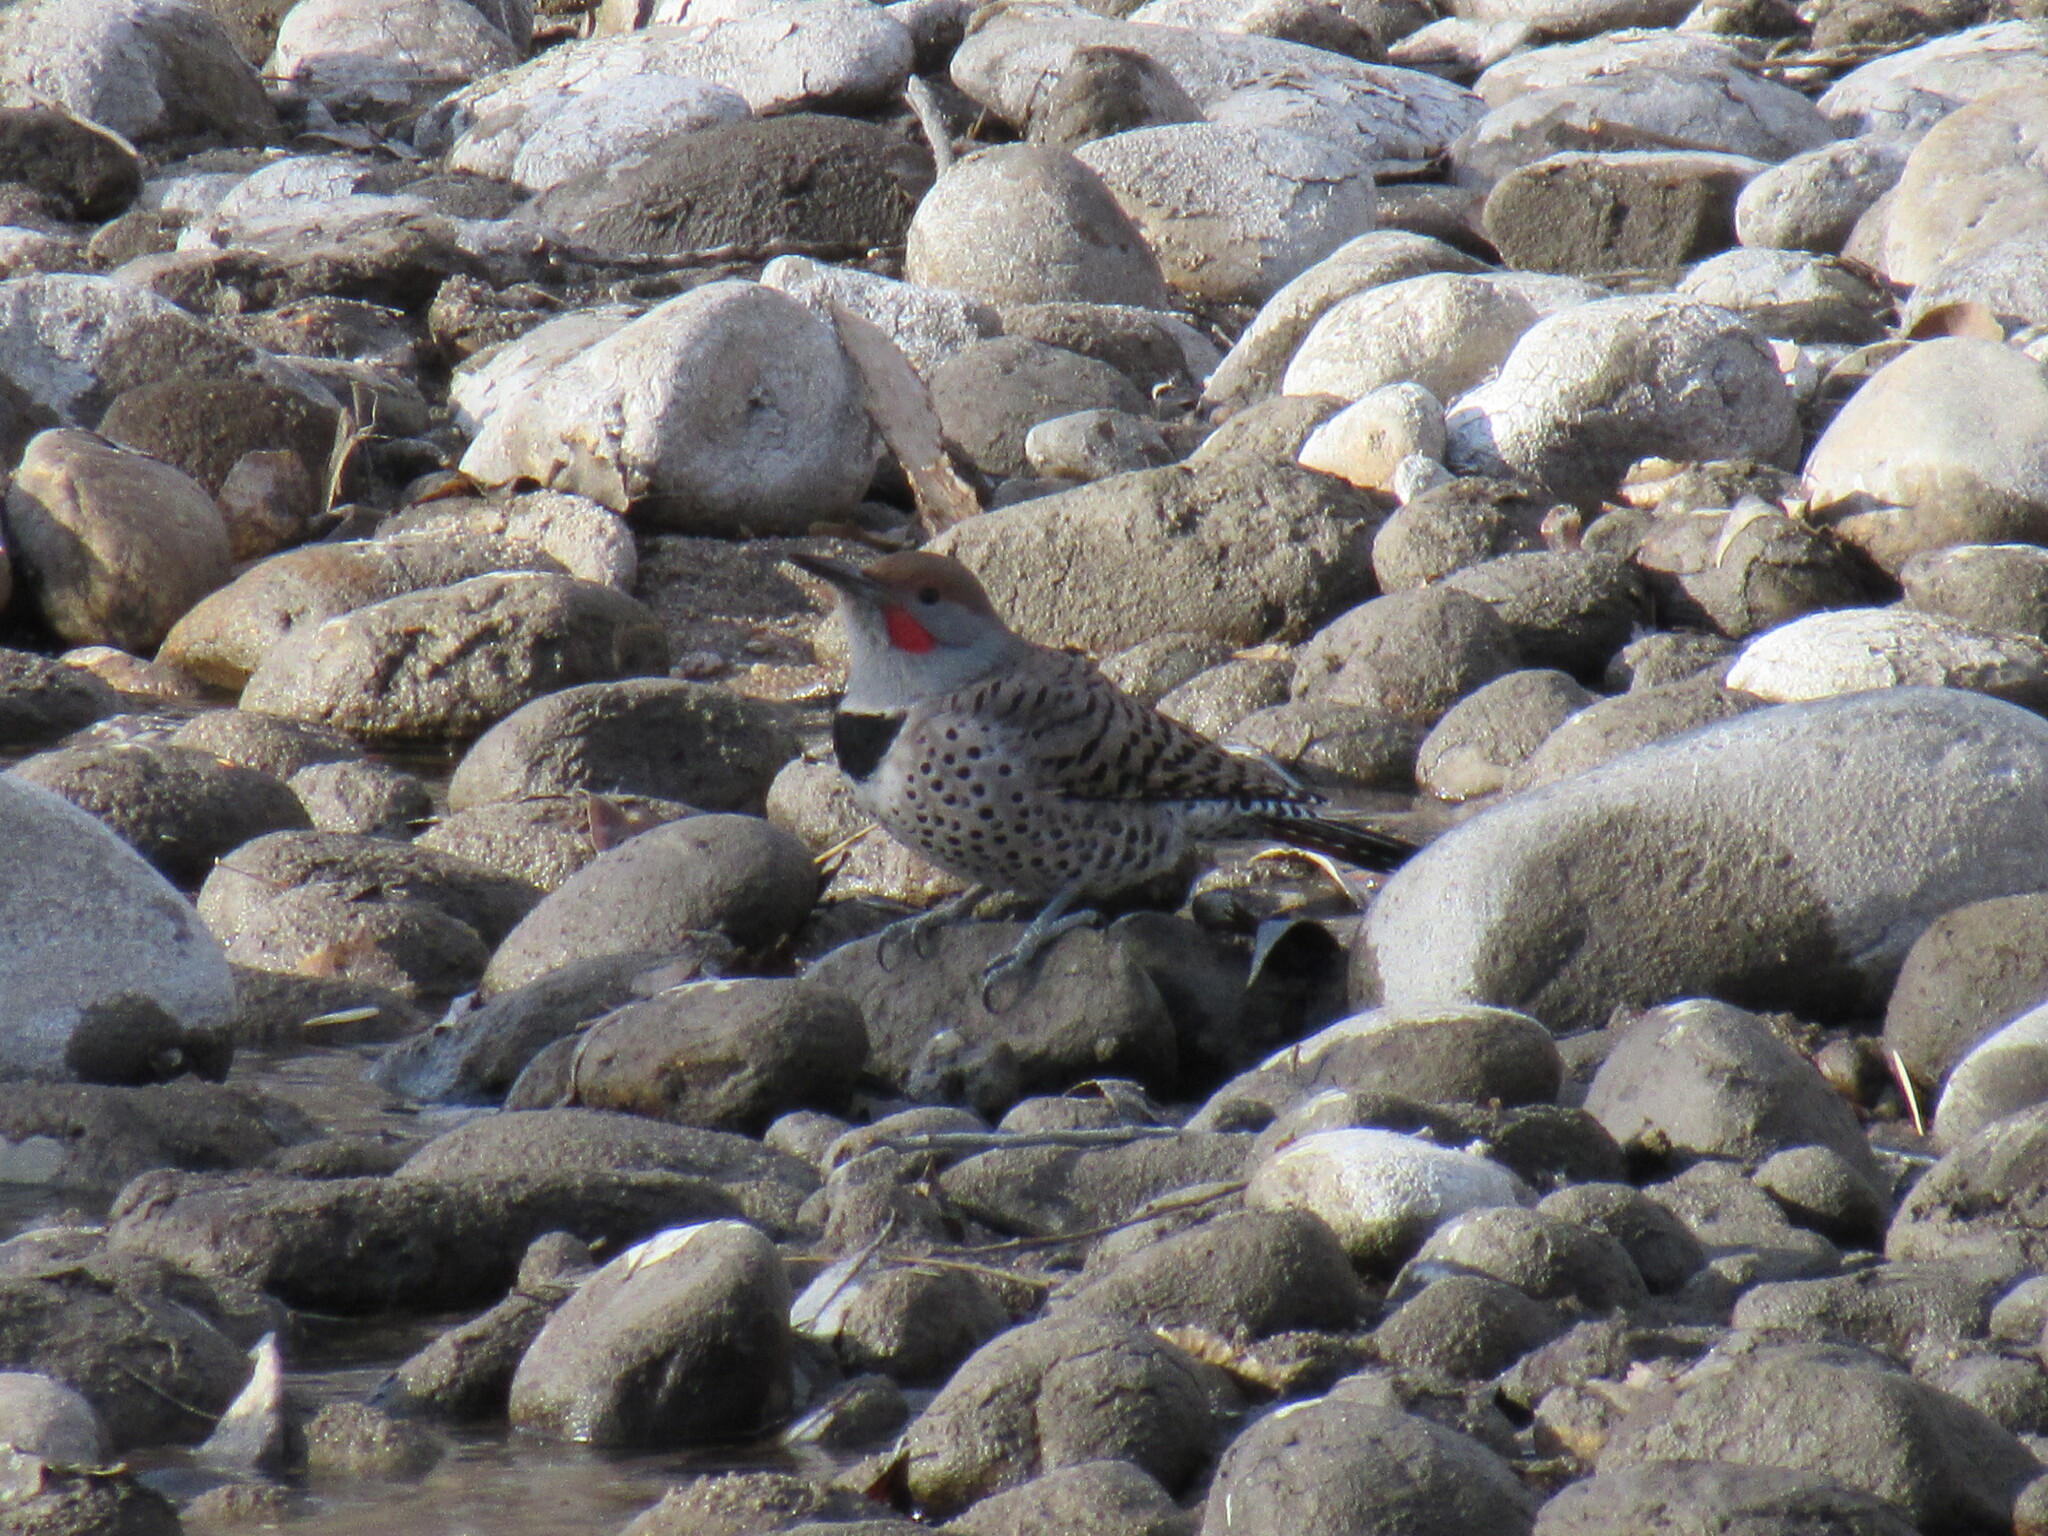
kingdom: Animalia
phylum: Chordata
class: Aves
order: Piciformes
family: Picidae
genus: Colaptes
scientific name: Colaptes auratus
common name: Northern flicker
